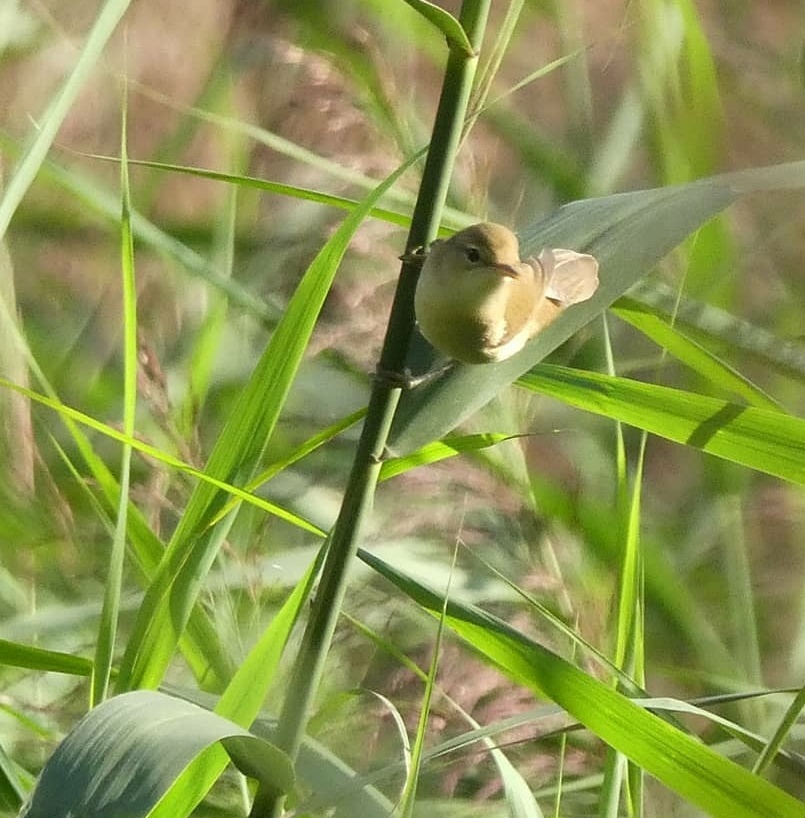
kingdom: Animalia
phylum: Chordata
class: Aves
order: Passeriformes
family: Acrocephalidae
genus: Acrocephalus
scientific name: Acrocephalus scirpaceus
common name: Eurasian reed warbler
